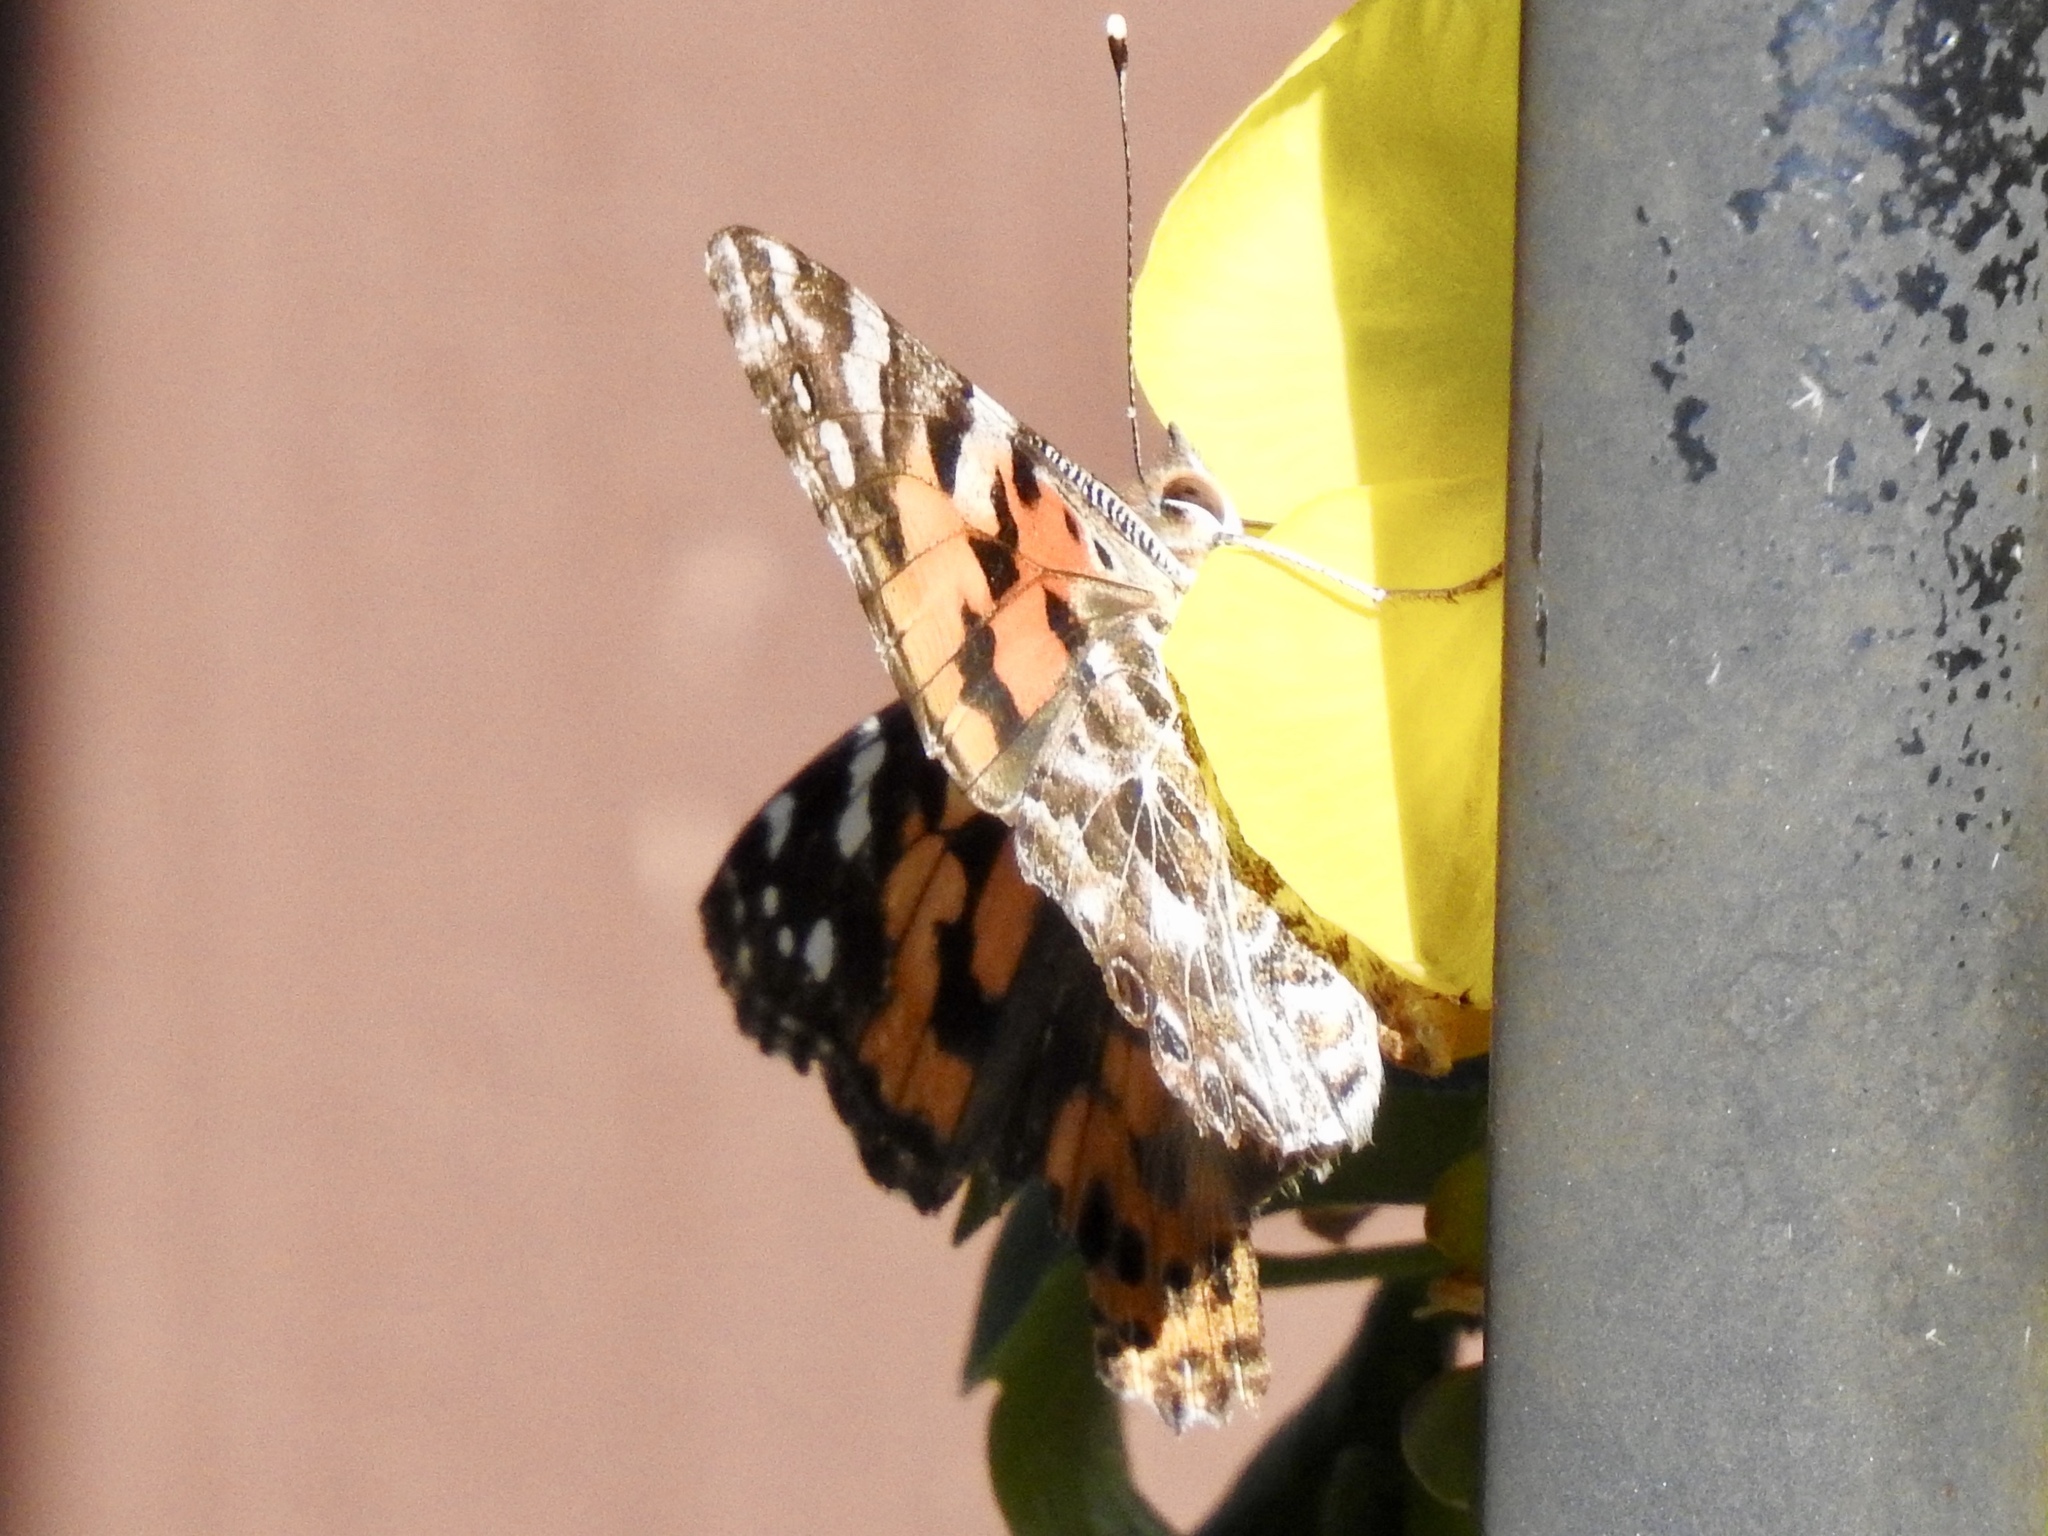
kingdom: Animalia
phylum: Arthropoda
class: Insecta
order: Lepidoptera
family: Nymphalidae
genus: Vanessa
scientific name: Vanessa cardui
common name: Painted lady
